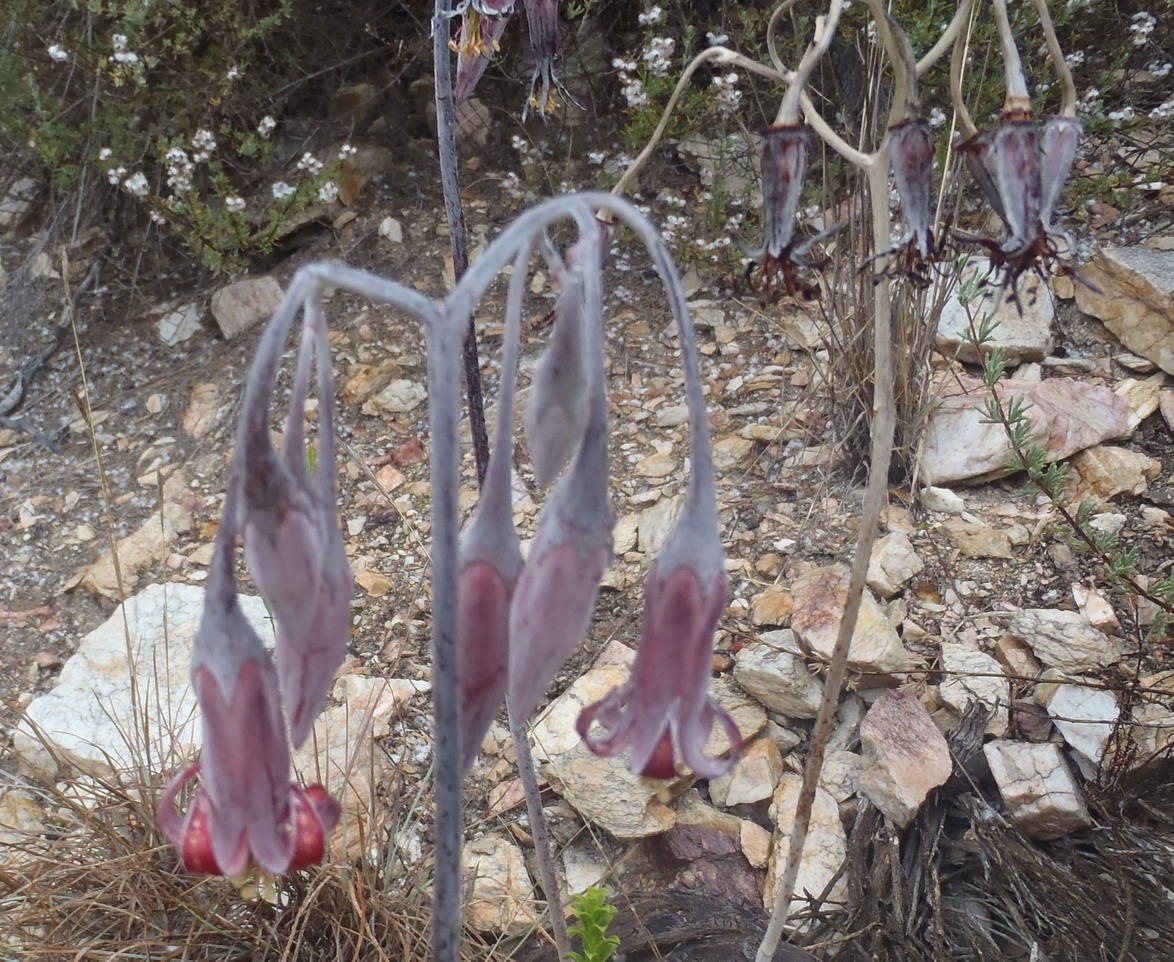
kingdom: Plantae
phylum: Tracheophyta
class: Magnoliopsida
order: Saxifragales
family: Crassulaceae
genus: Cotyledon
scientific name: Cotyledon orbiculata
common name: Pig's ear
